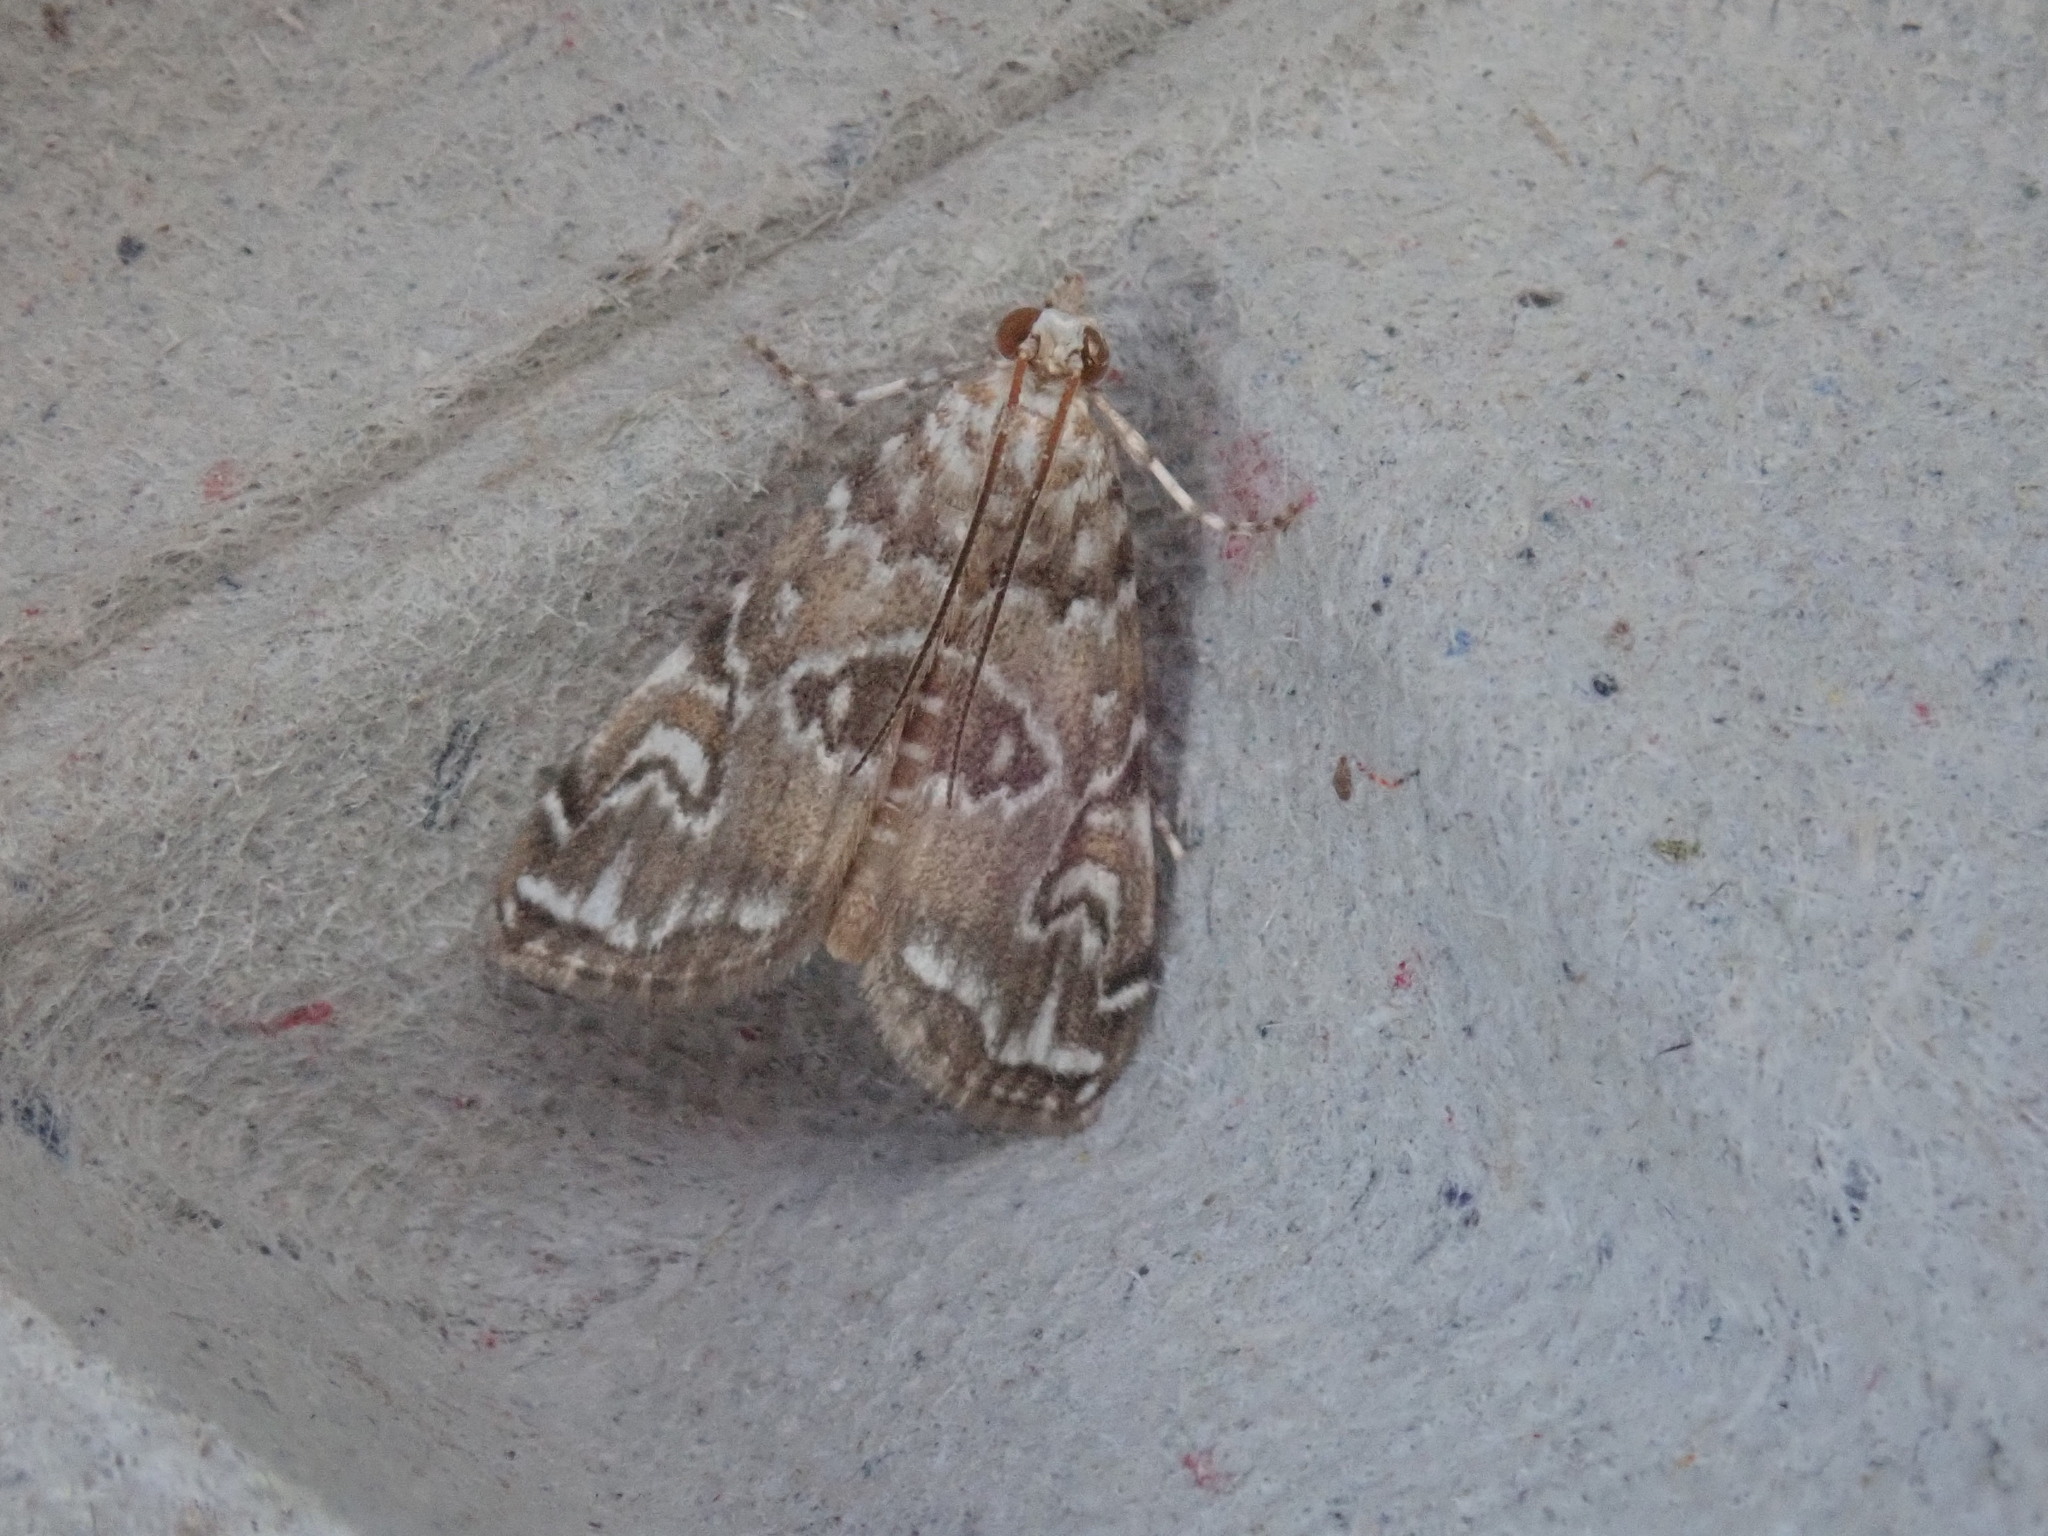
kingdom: Animalia
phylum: Arthropoda
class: Insecta
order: Lepidoptera
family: Crambidae
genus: Elophila
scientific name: Elophila gyralis
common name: Waterlily borer moth
